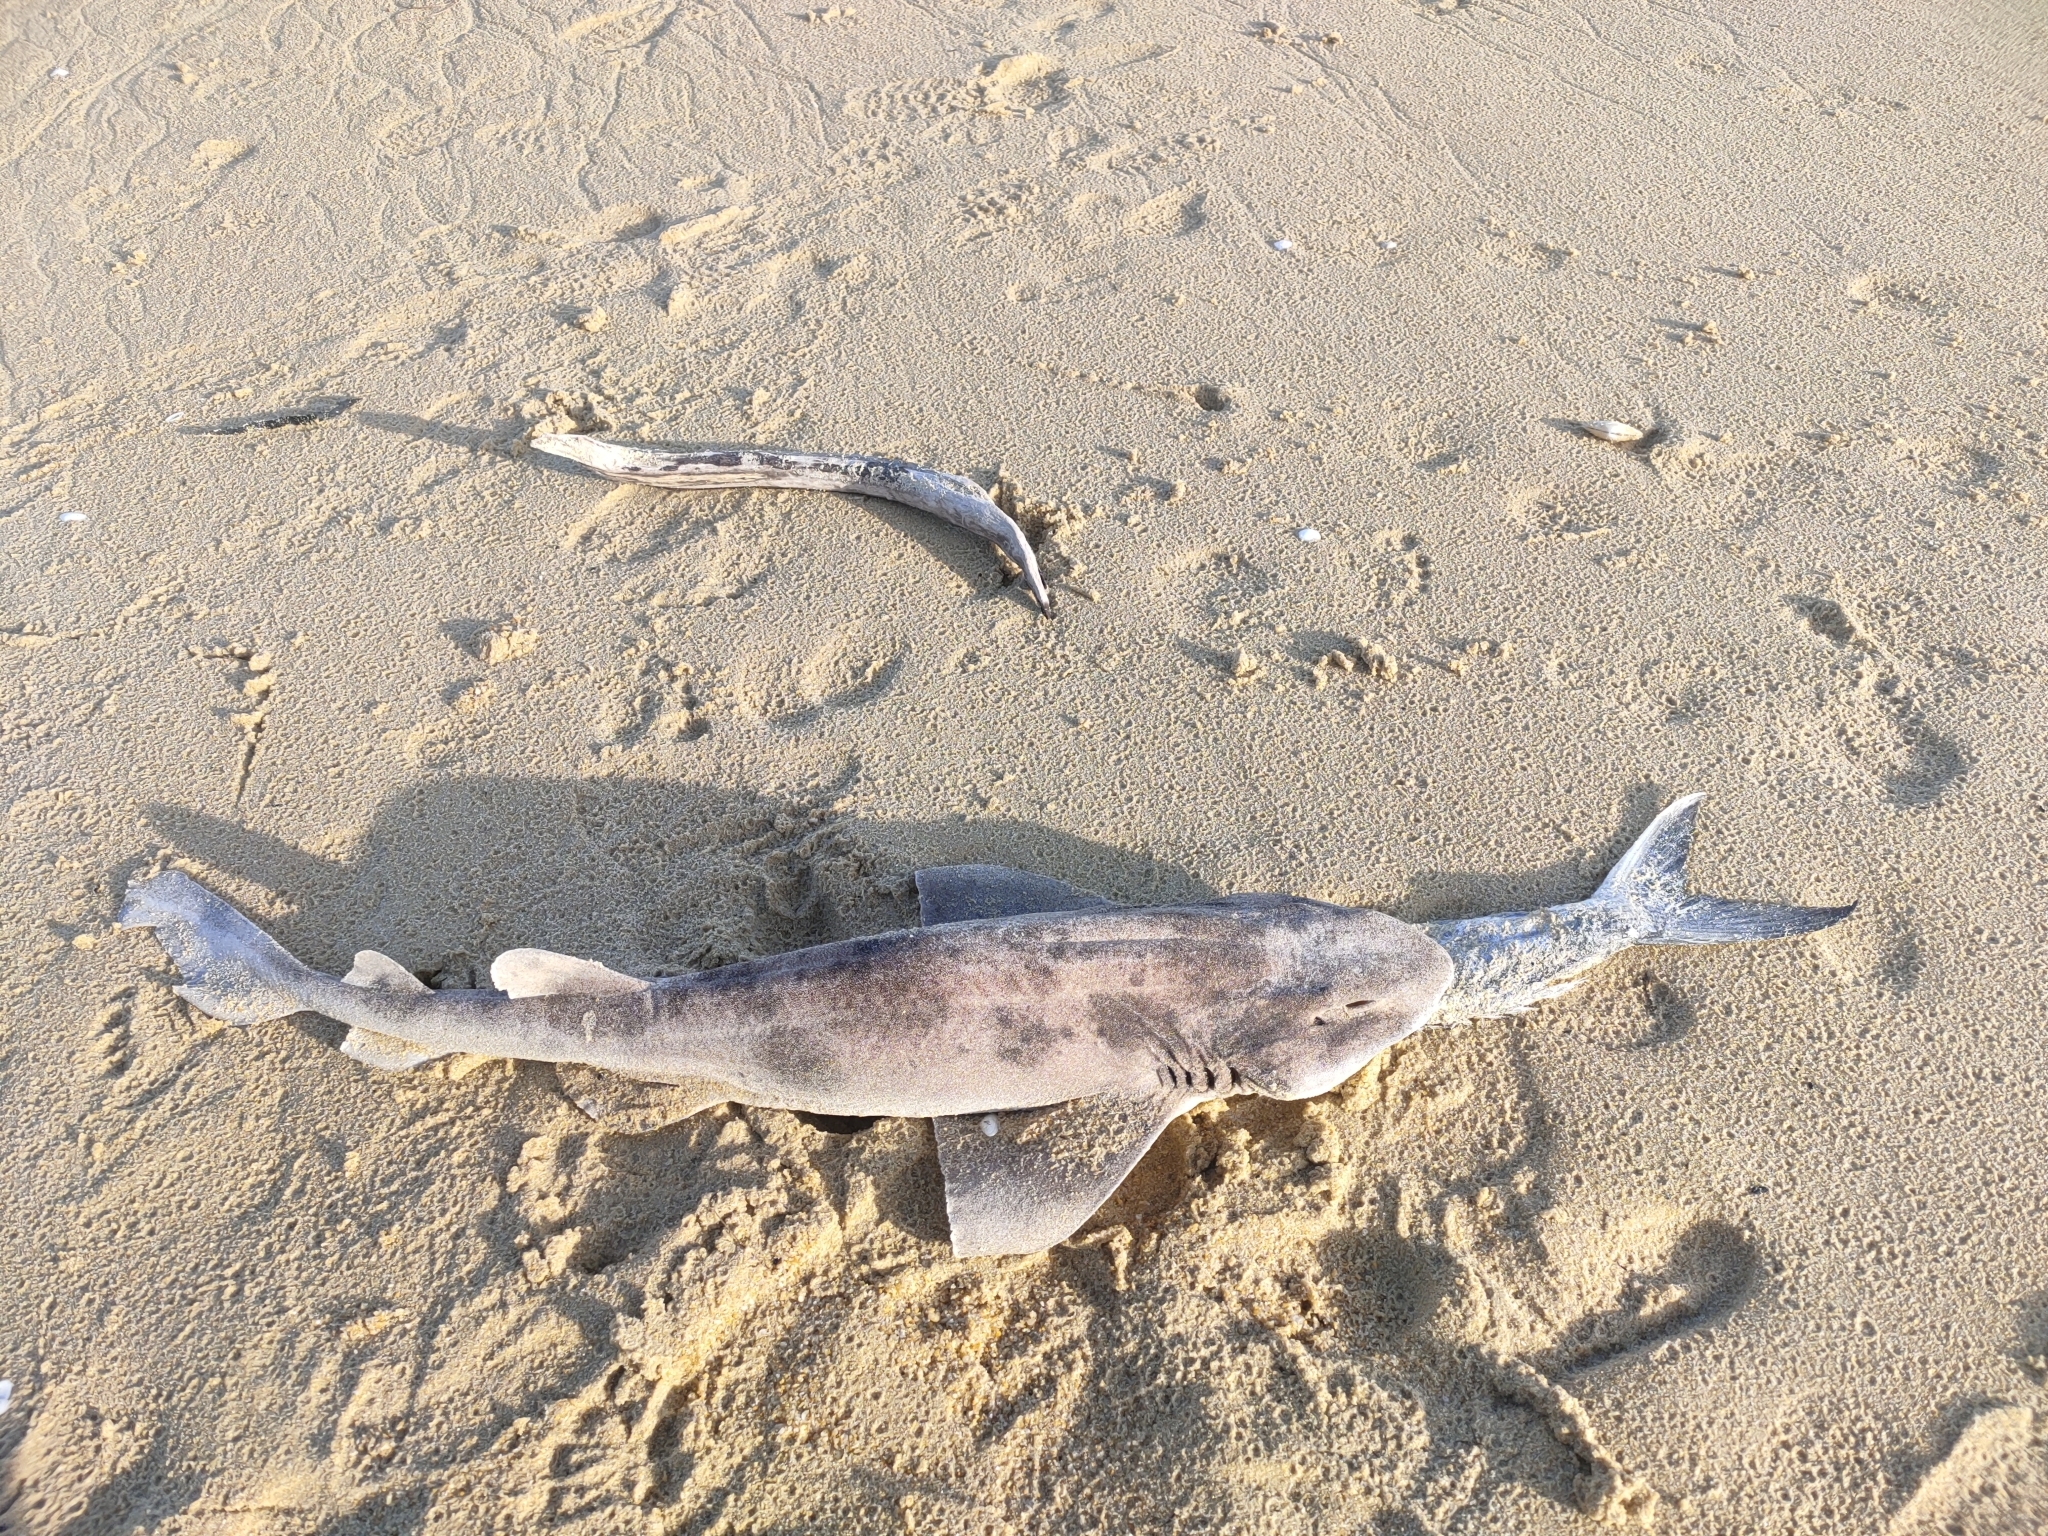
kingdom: Animalia
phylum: Chordata
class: Elasmobranchii
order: Carcharhiniformes
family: Scyliorhinidae
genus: Cephaloscyllium
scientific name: Cephaloscyllium isabellum
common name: Carpet shark
